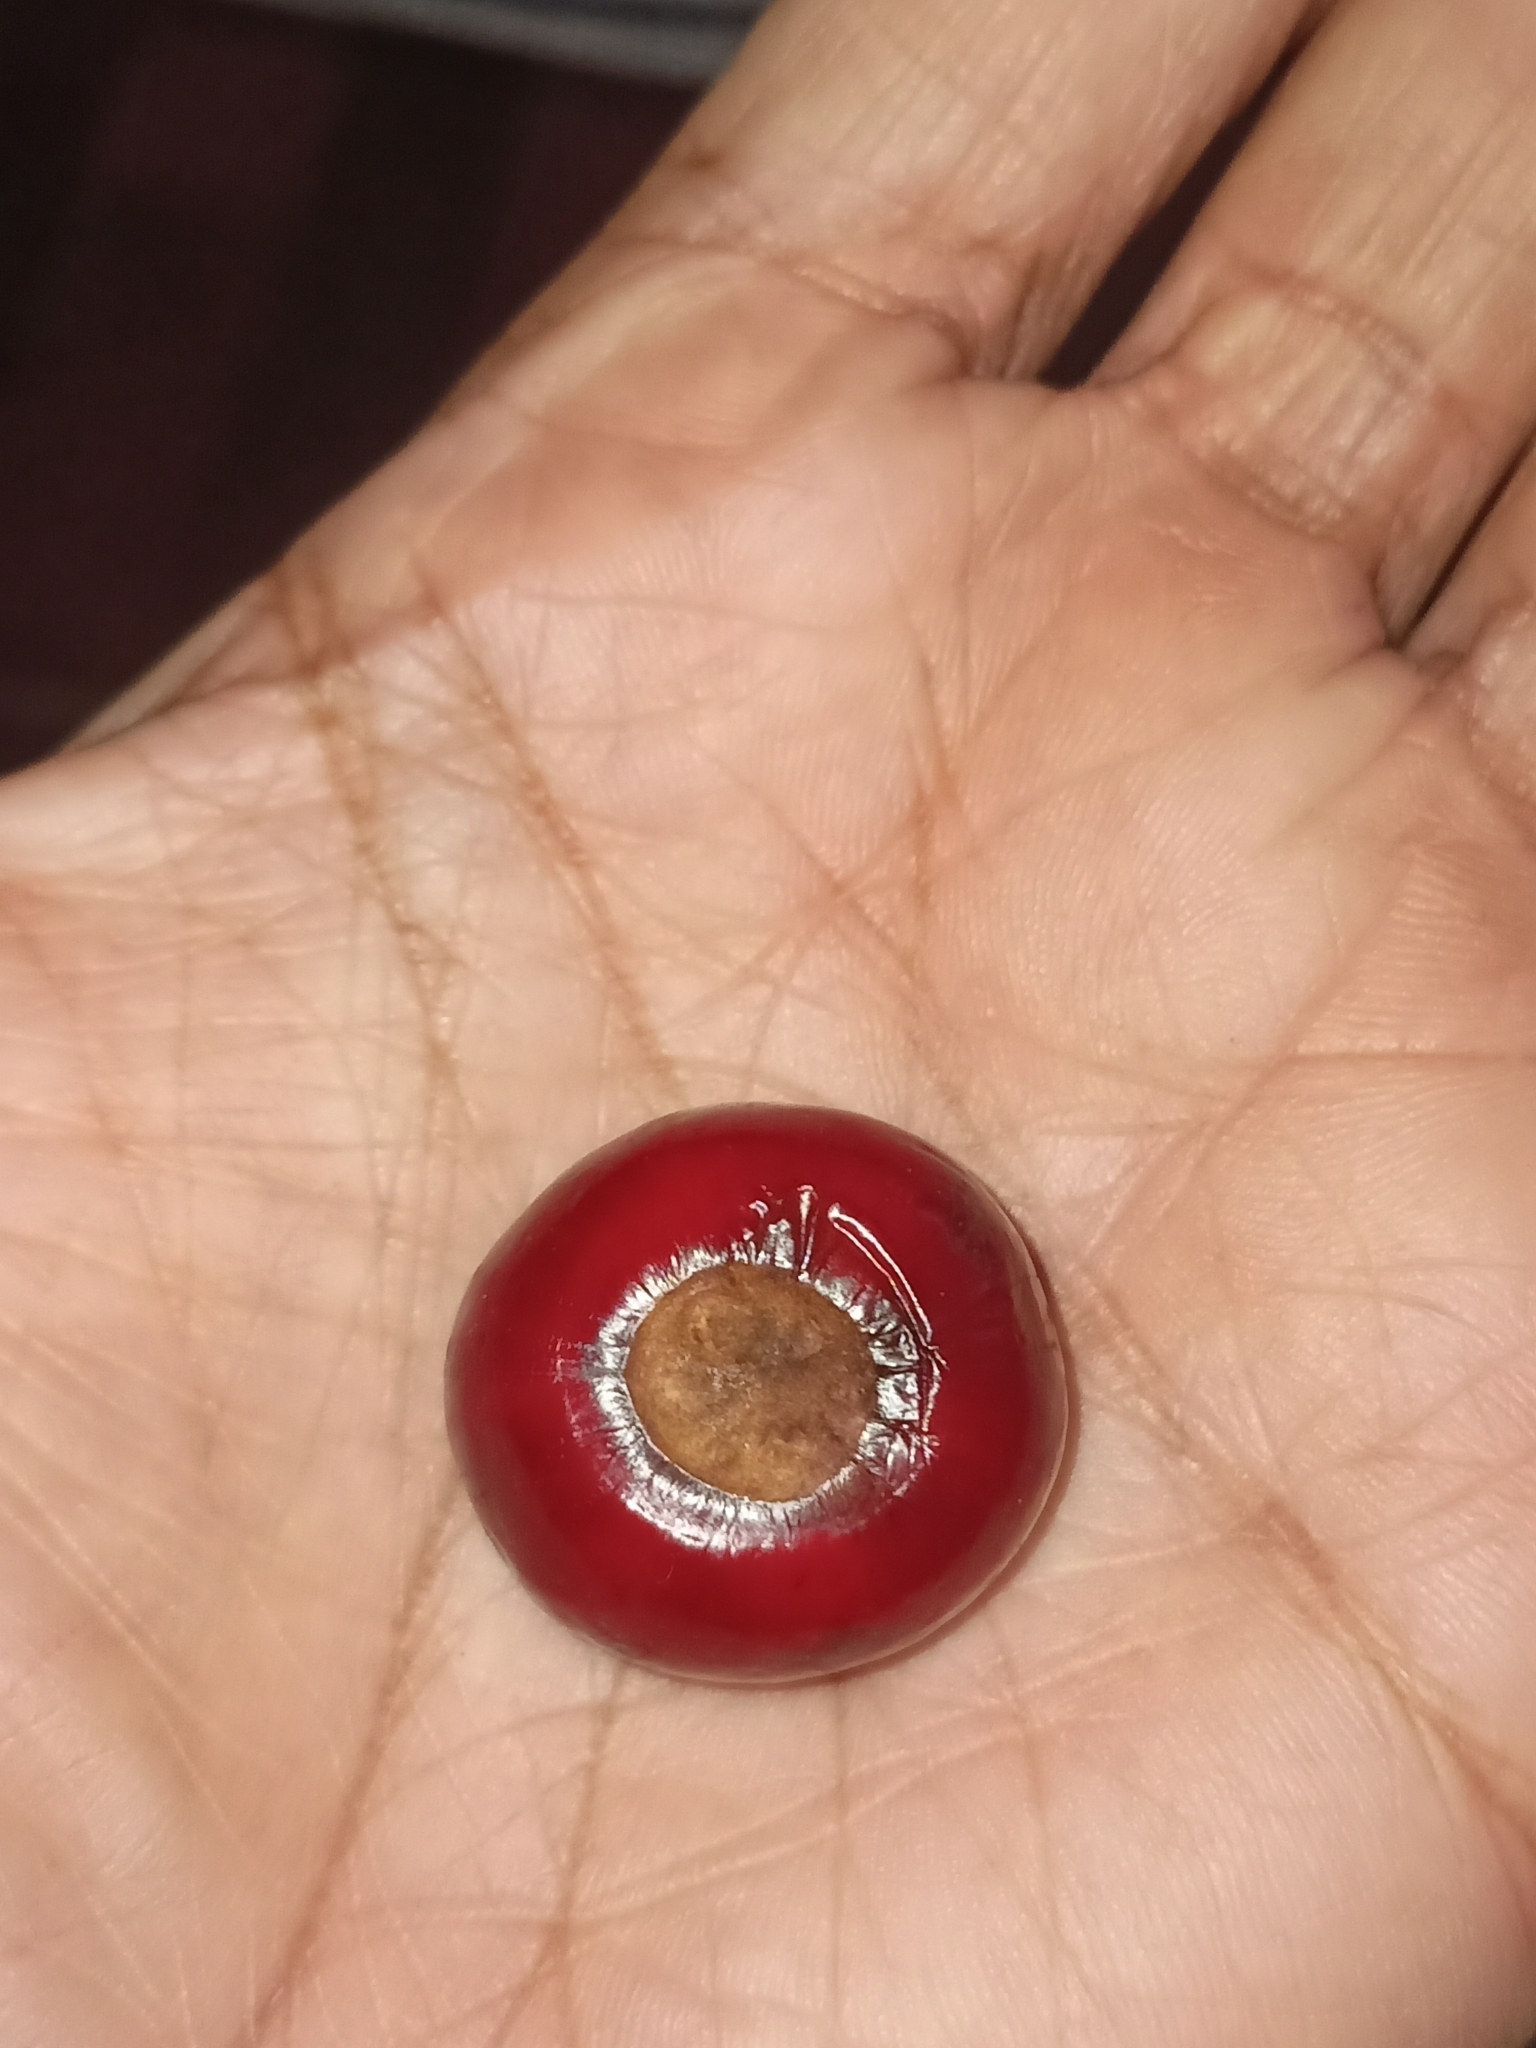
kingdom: Plantae
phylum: Tracheophyta
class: Magnoliopsida
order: Laurales
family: Lauraceae
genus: Litsea
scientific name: Litsea nigrescens
